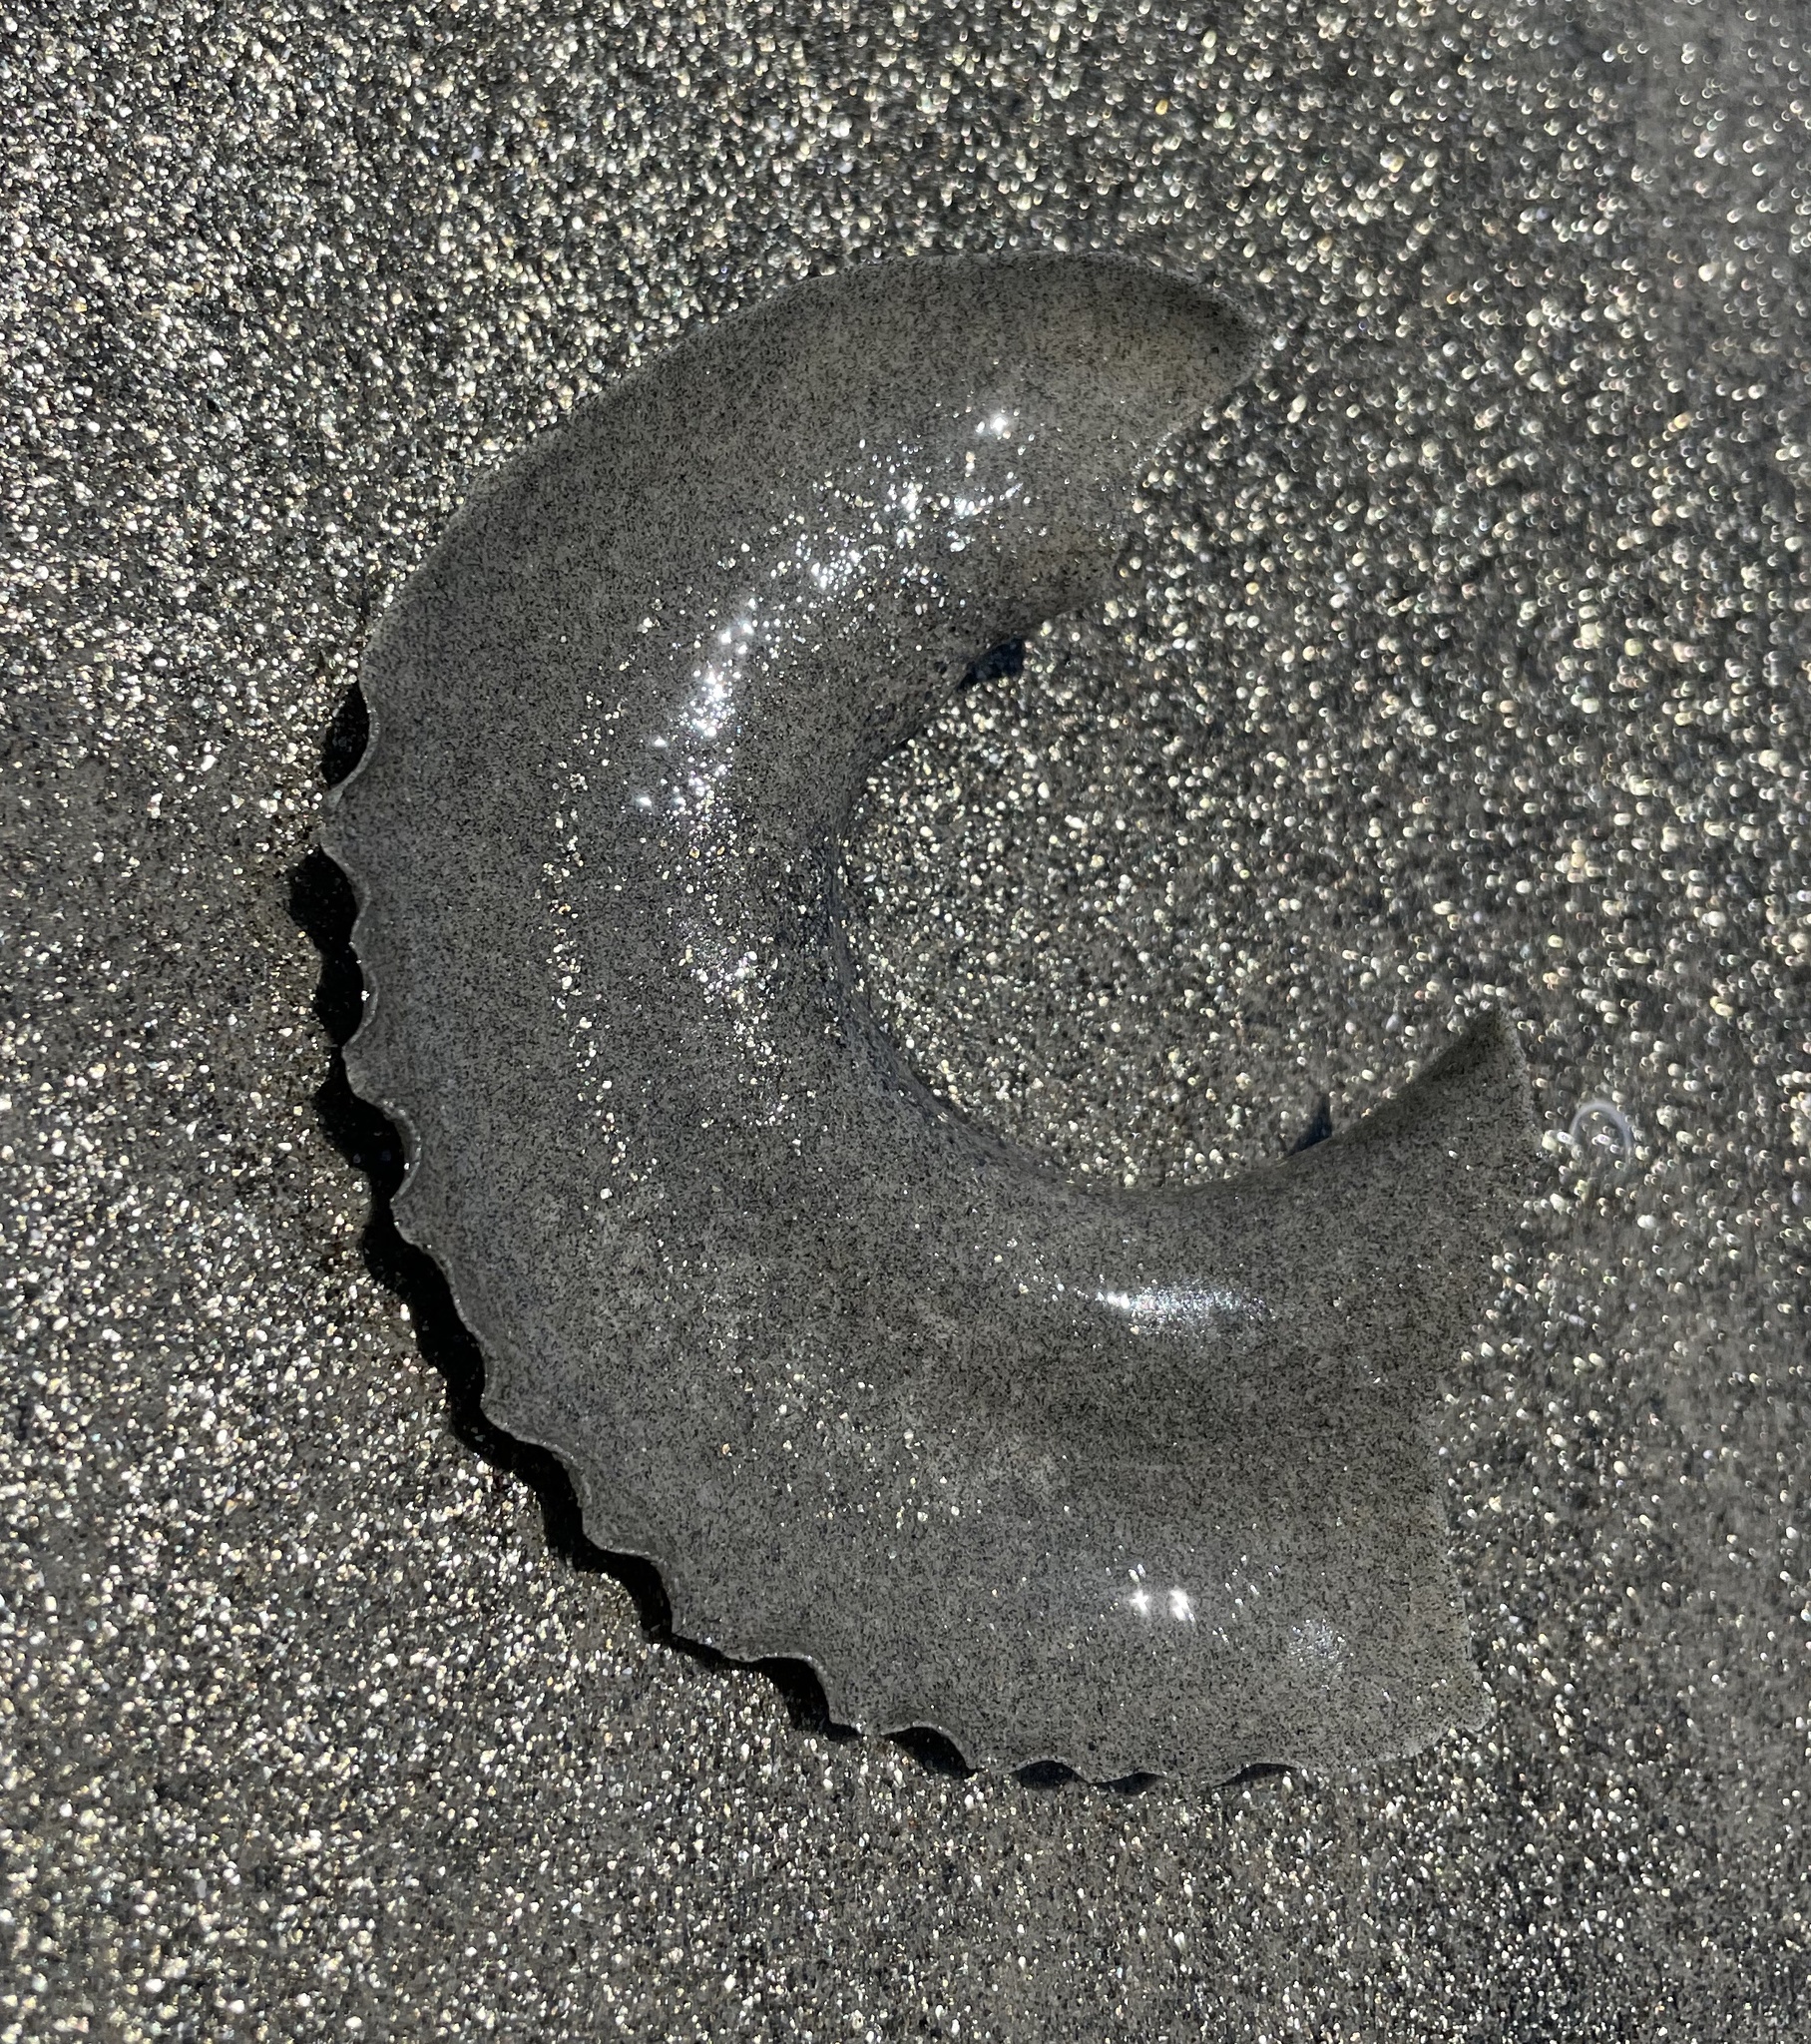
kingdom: Animalia
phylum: Mollusca
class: Gastropoda
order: Littorinimorpha
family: Naticidae
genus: Neverita
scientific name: Neverita lewisii
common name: Lewis' moonsnail
